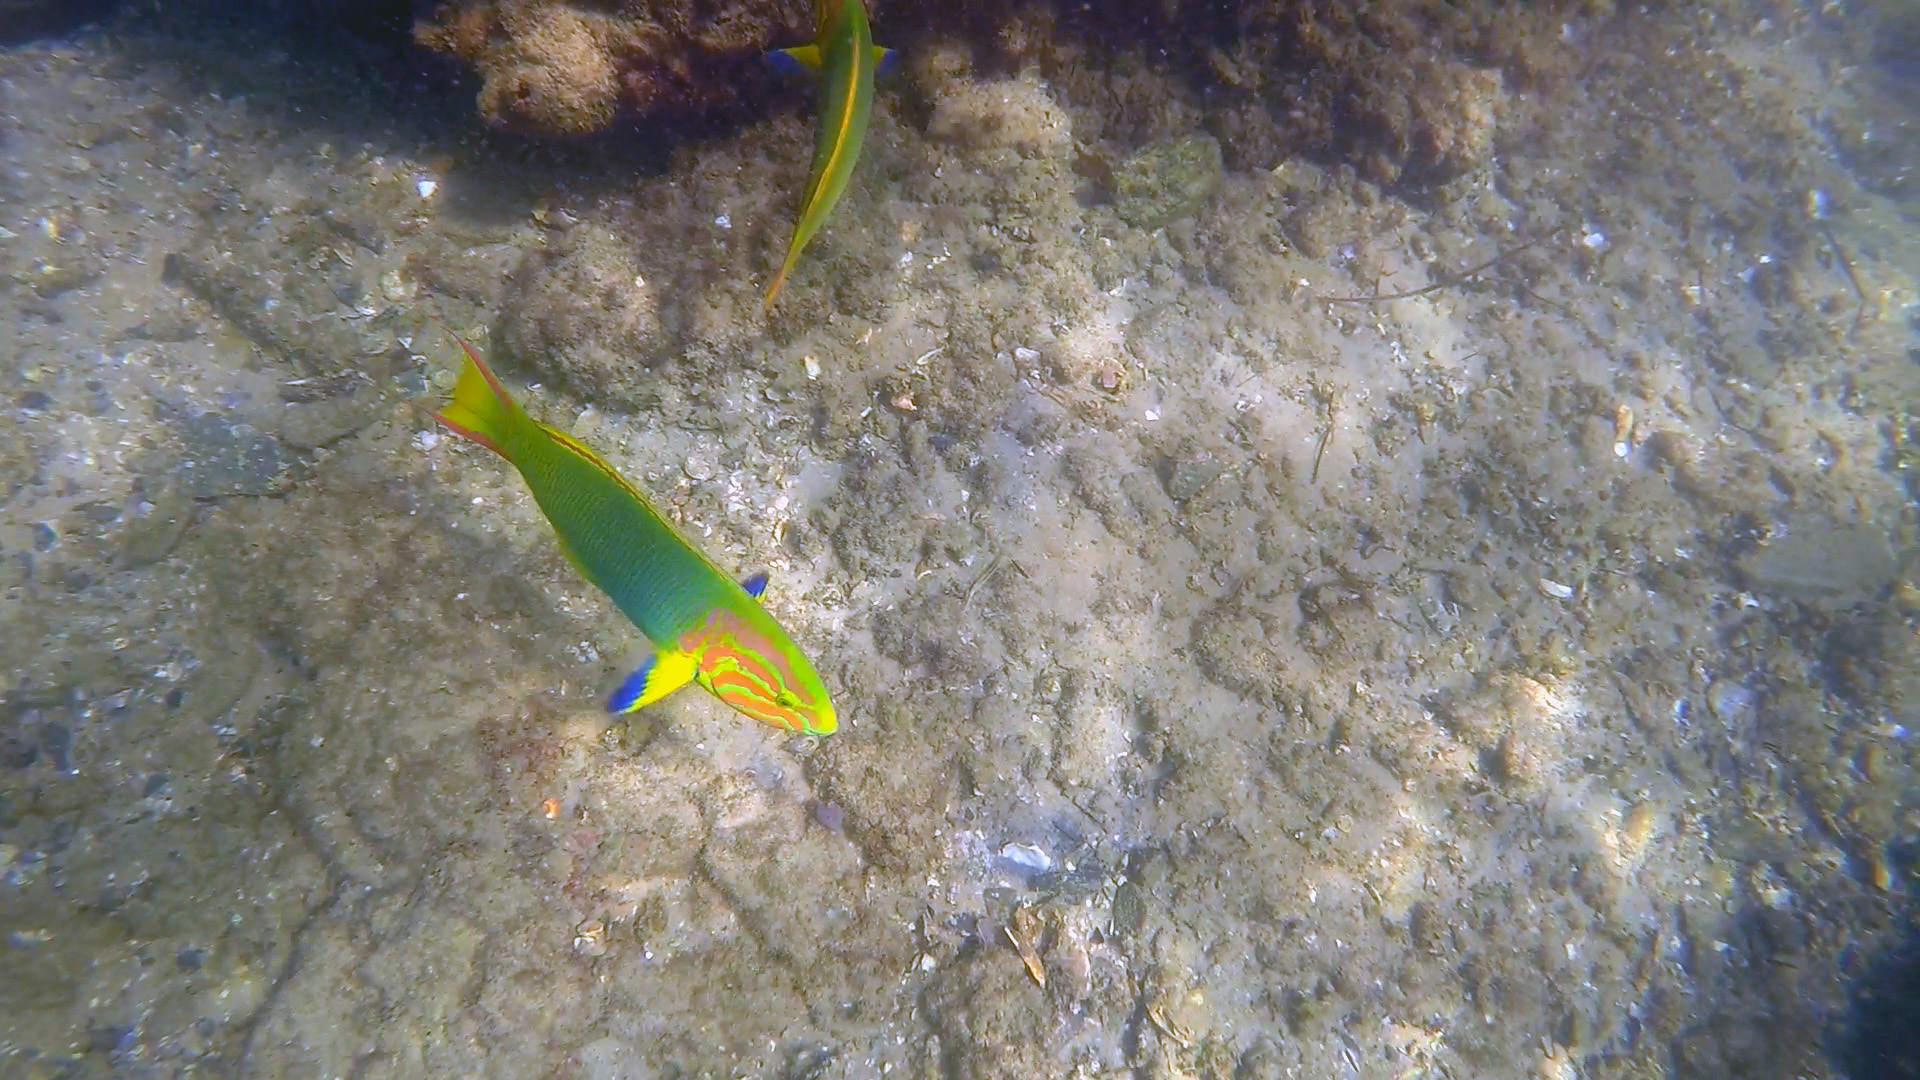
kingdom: Animalia
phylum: Chordata
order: Perciformes
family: Labridae
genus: Thalassoma
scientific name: Thalassoma lutescens
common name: Green moon wrasse
